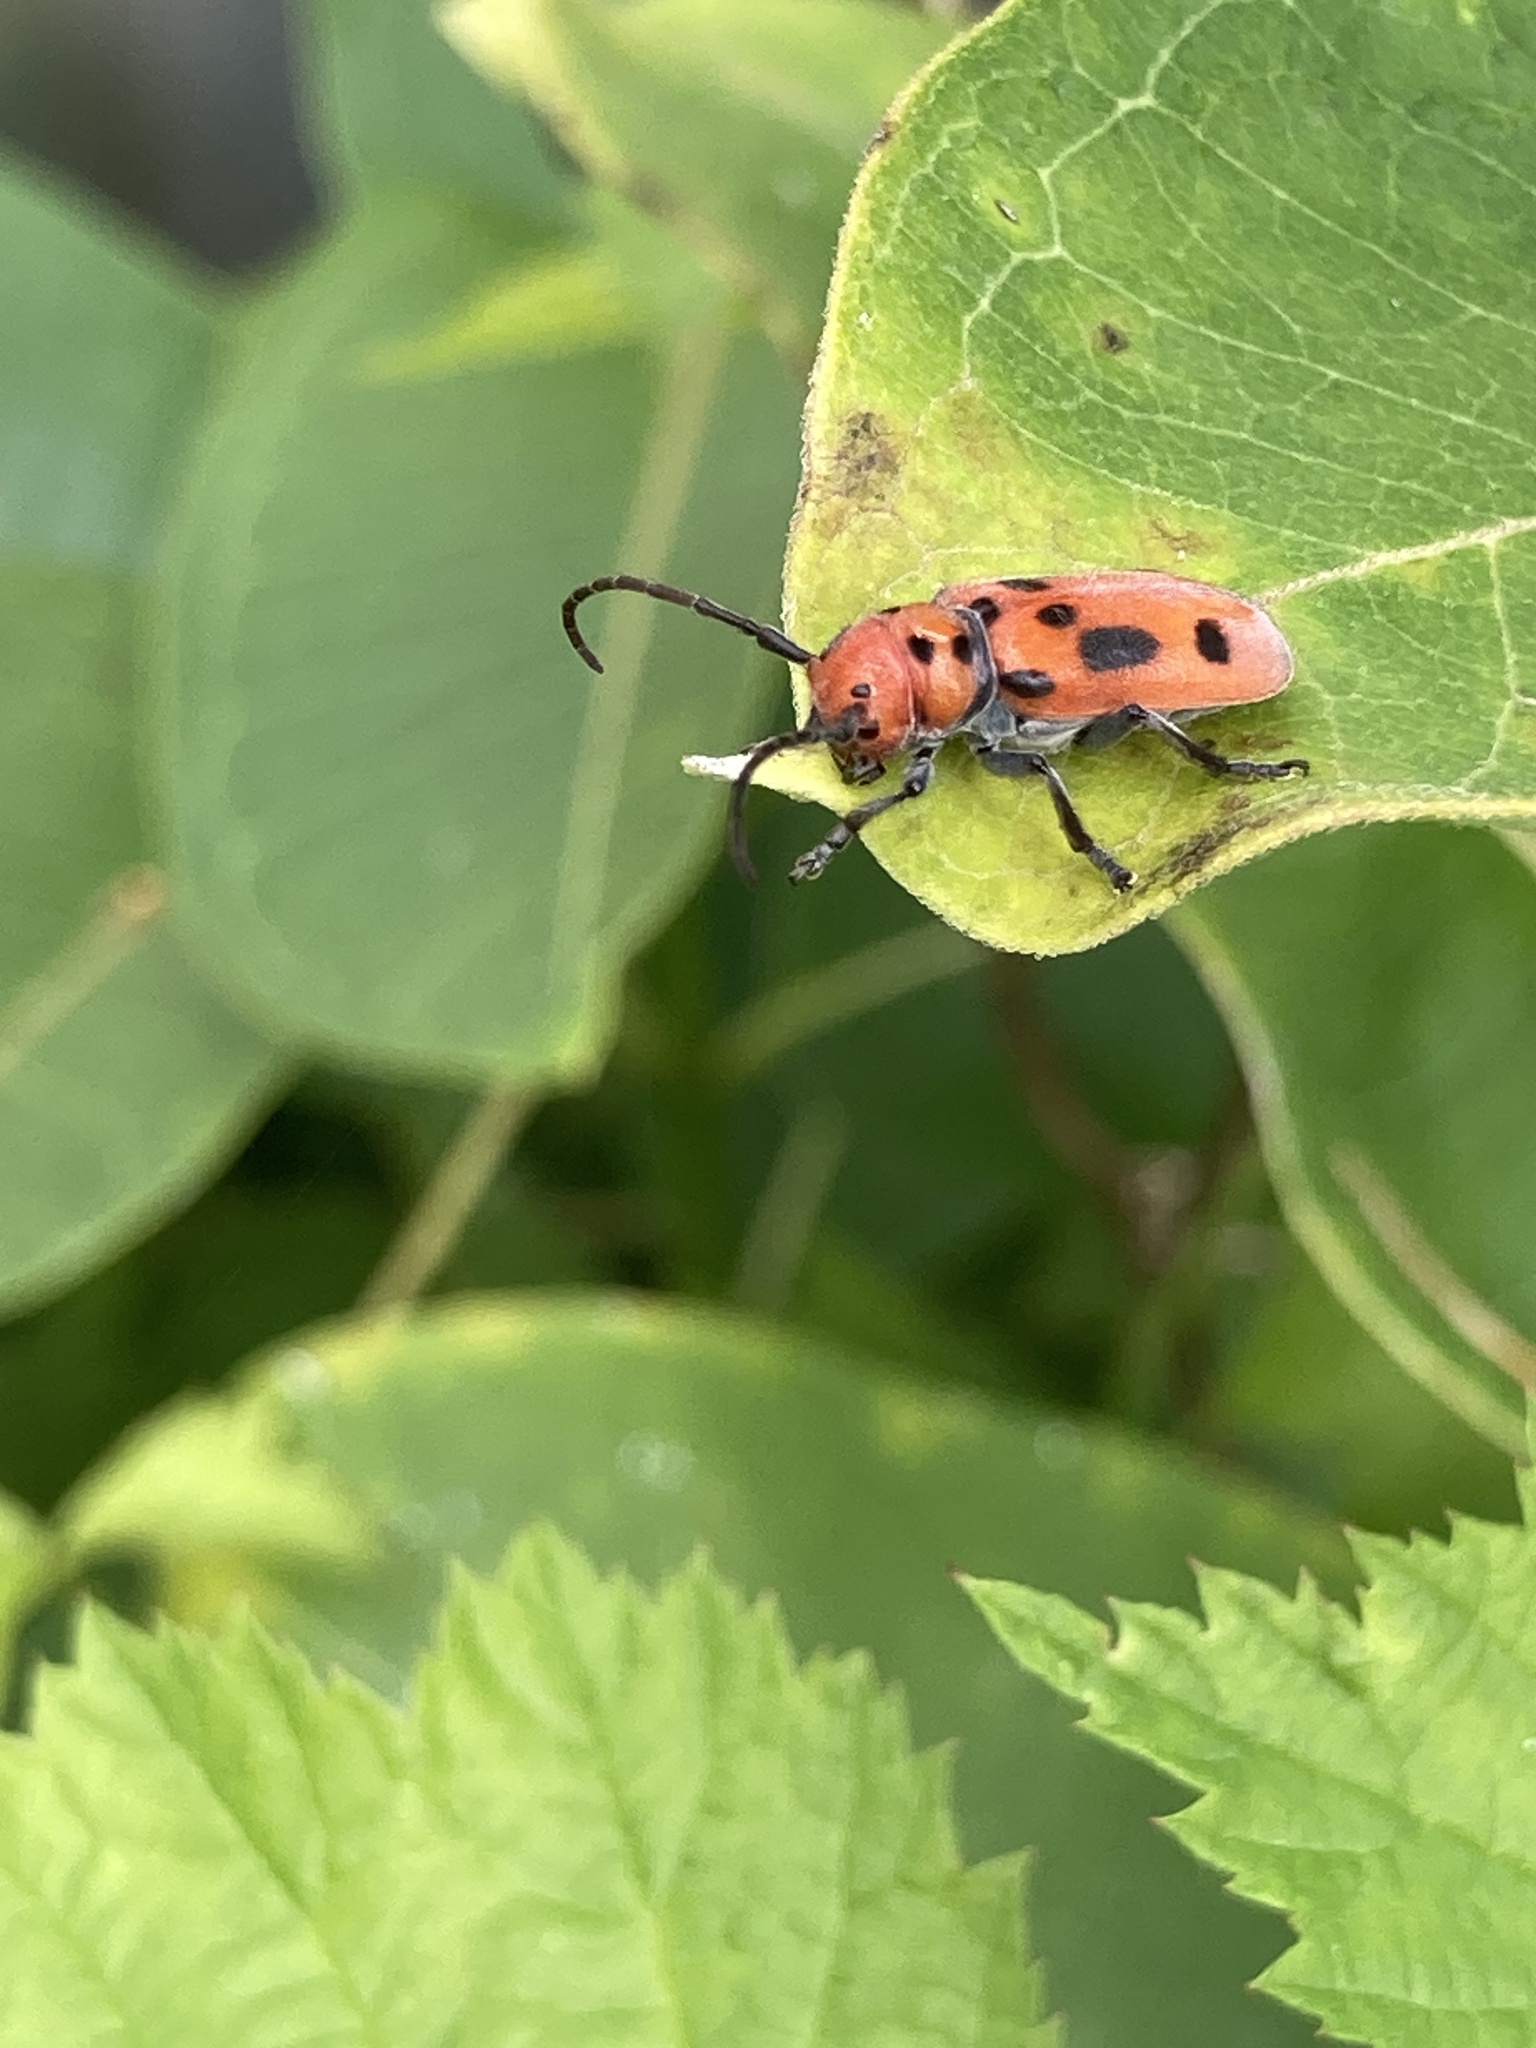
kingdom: Animalia
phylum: Arthropoda
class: Insecta
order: Coleoptera
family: Cerambycidae
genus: Tetraopes
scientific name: Tetraopes tetrophthalmus
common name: Red milkweed beetle
